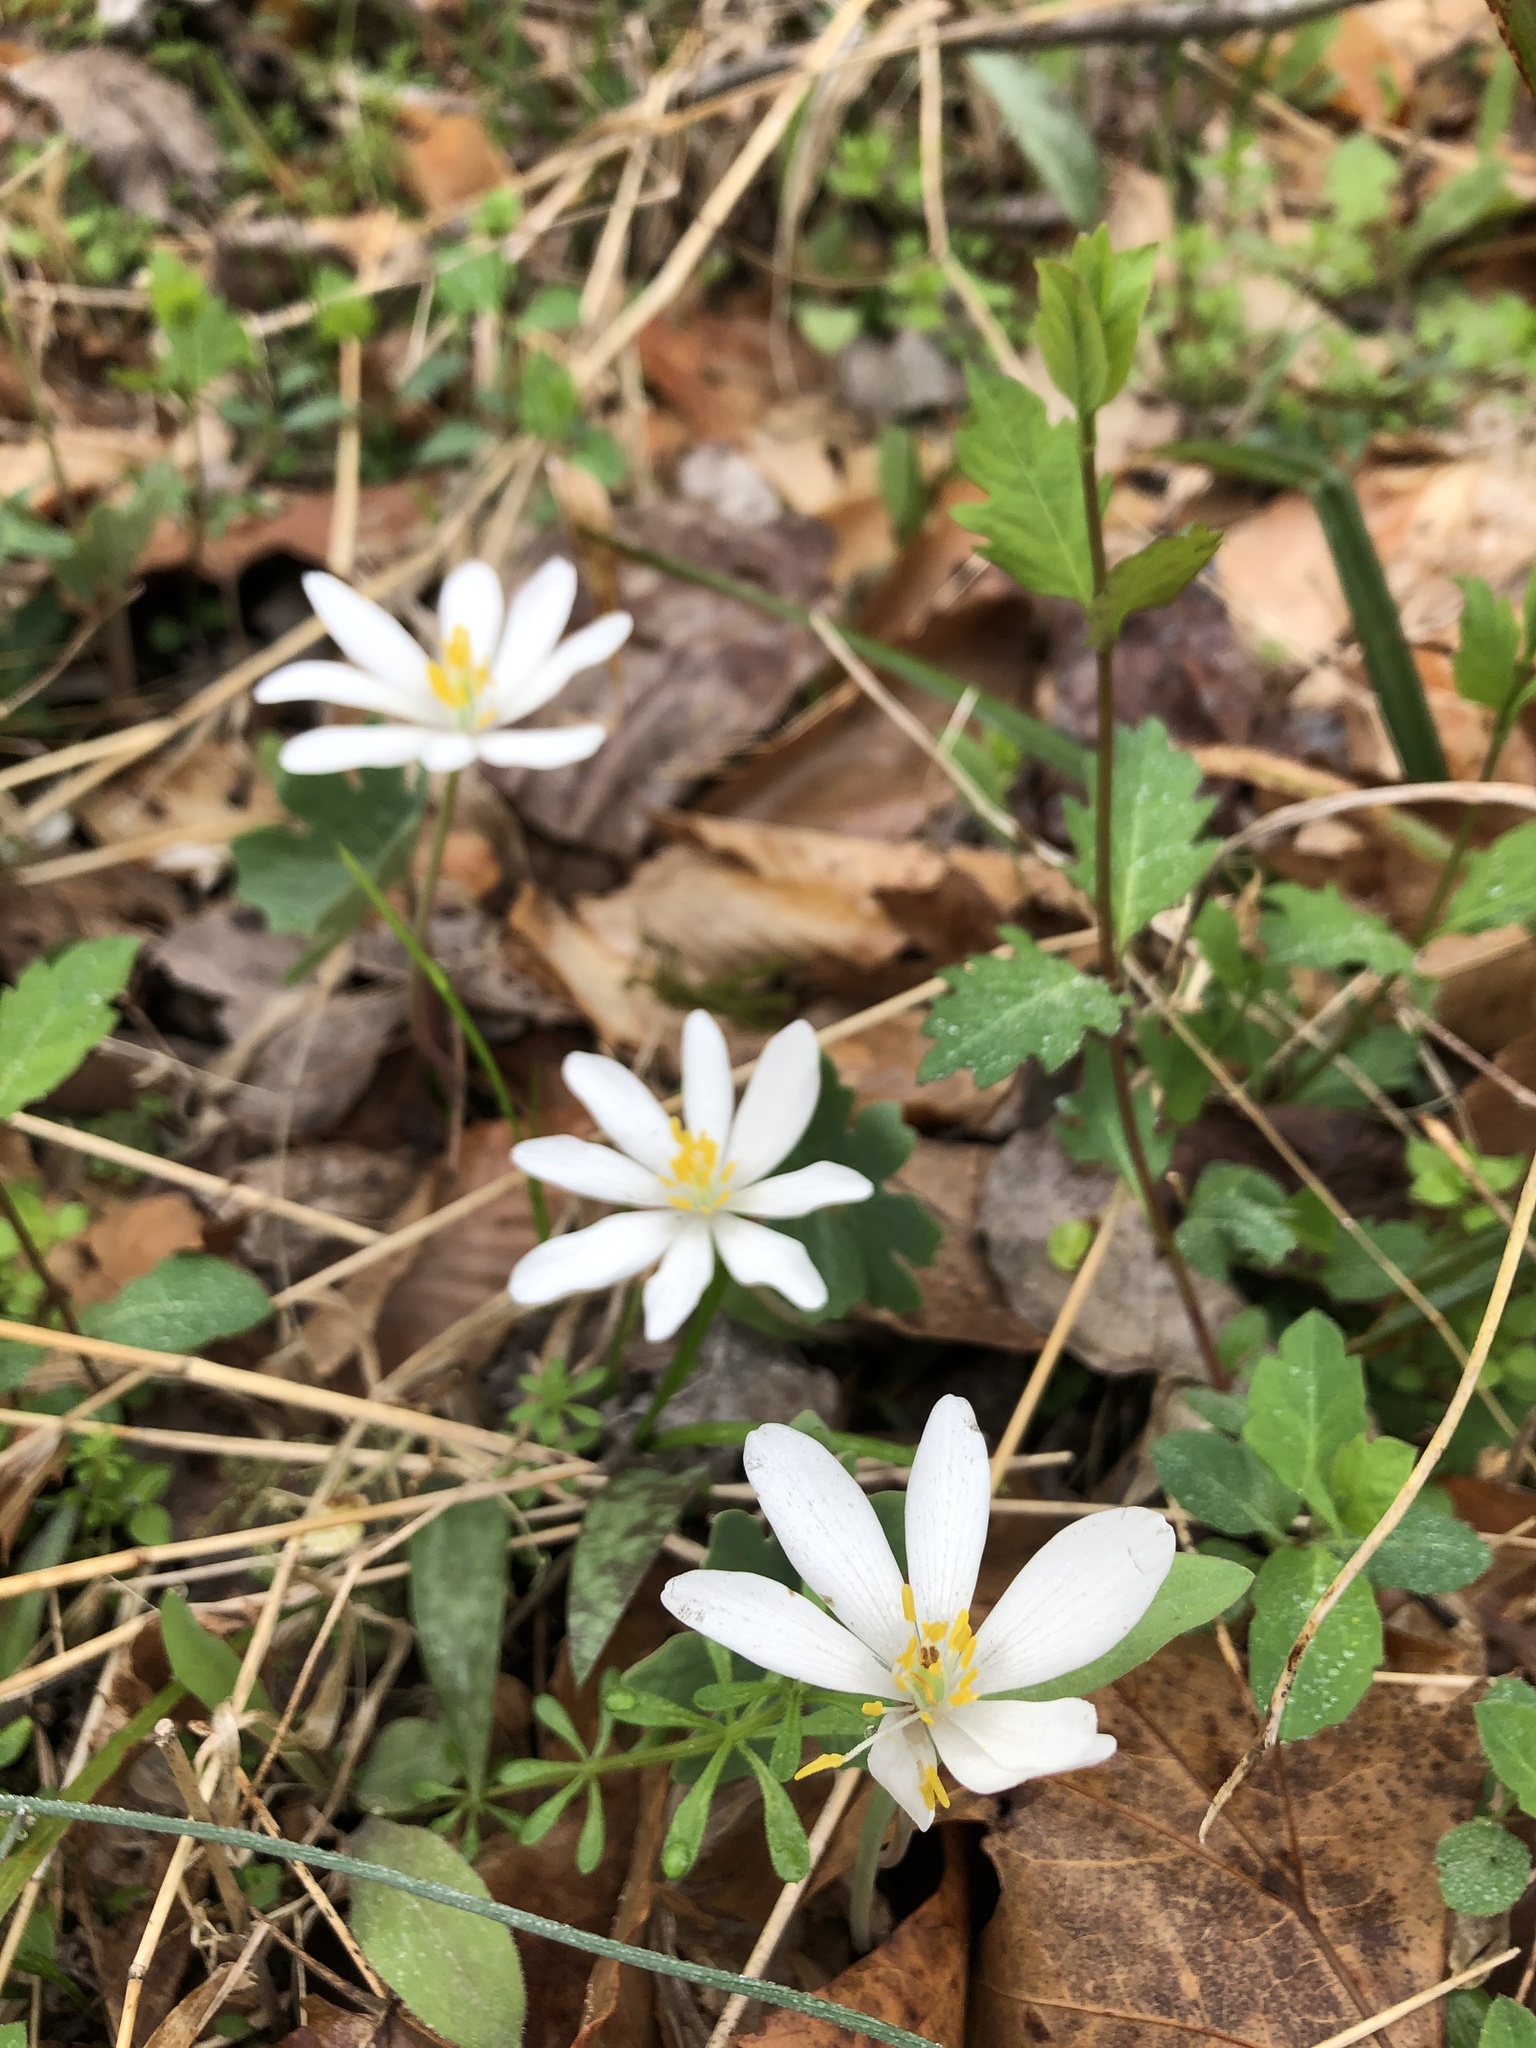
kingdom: Plantae
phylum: Tracheophyta
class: Magnoliopsida
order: Ranunculales
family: Papaveraceae
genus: Sanguinaria
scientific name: Sanguinaria canadensis
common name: Bloodroot
